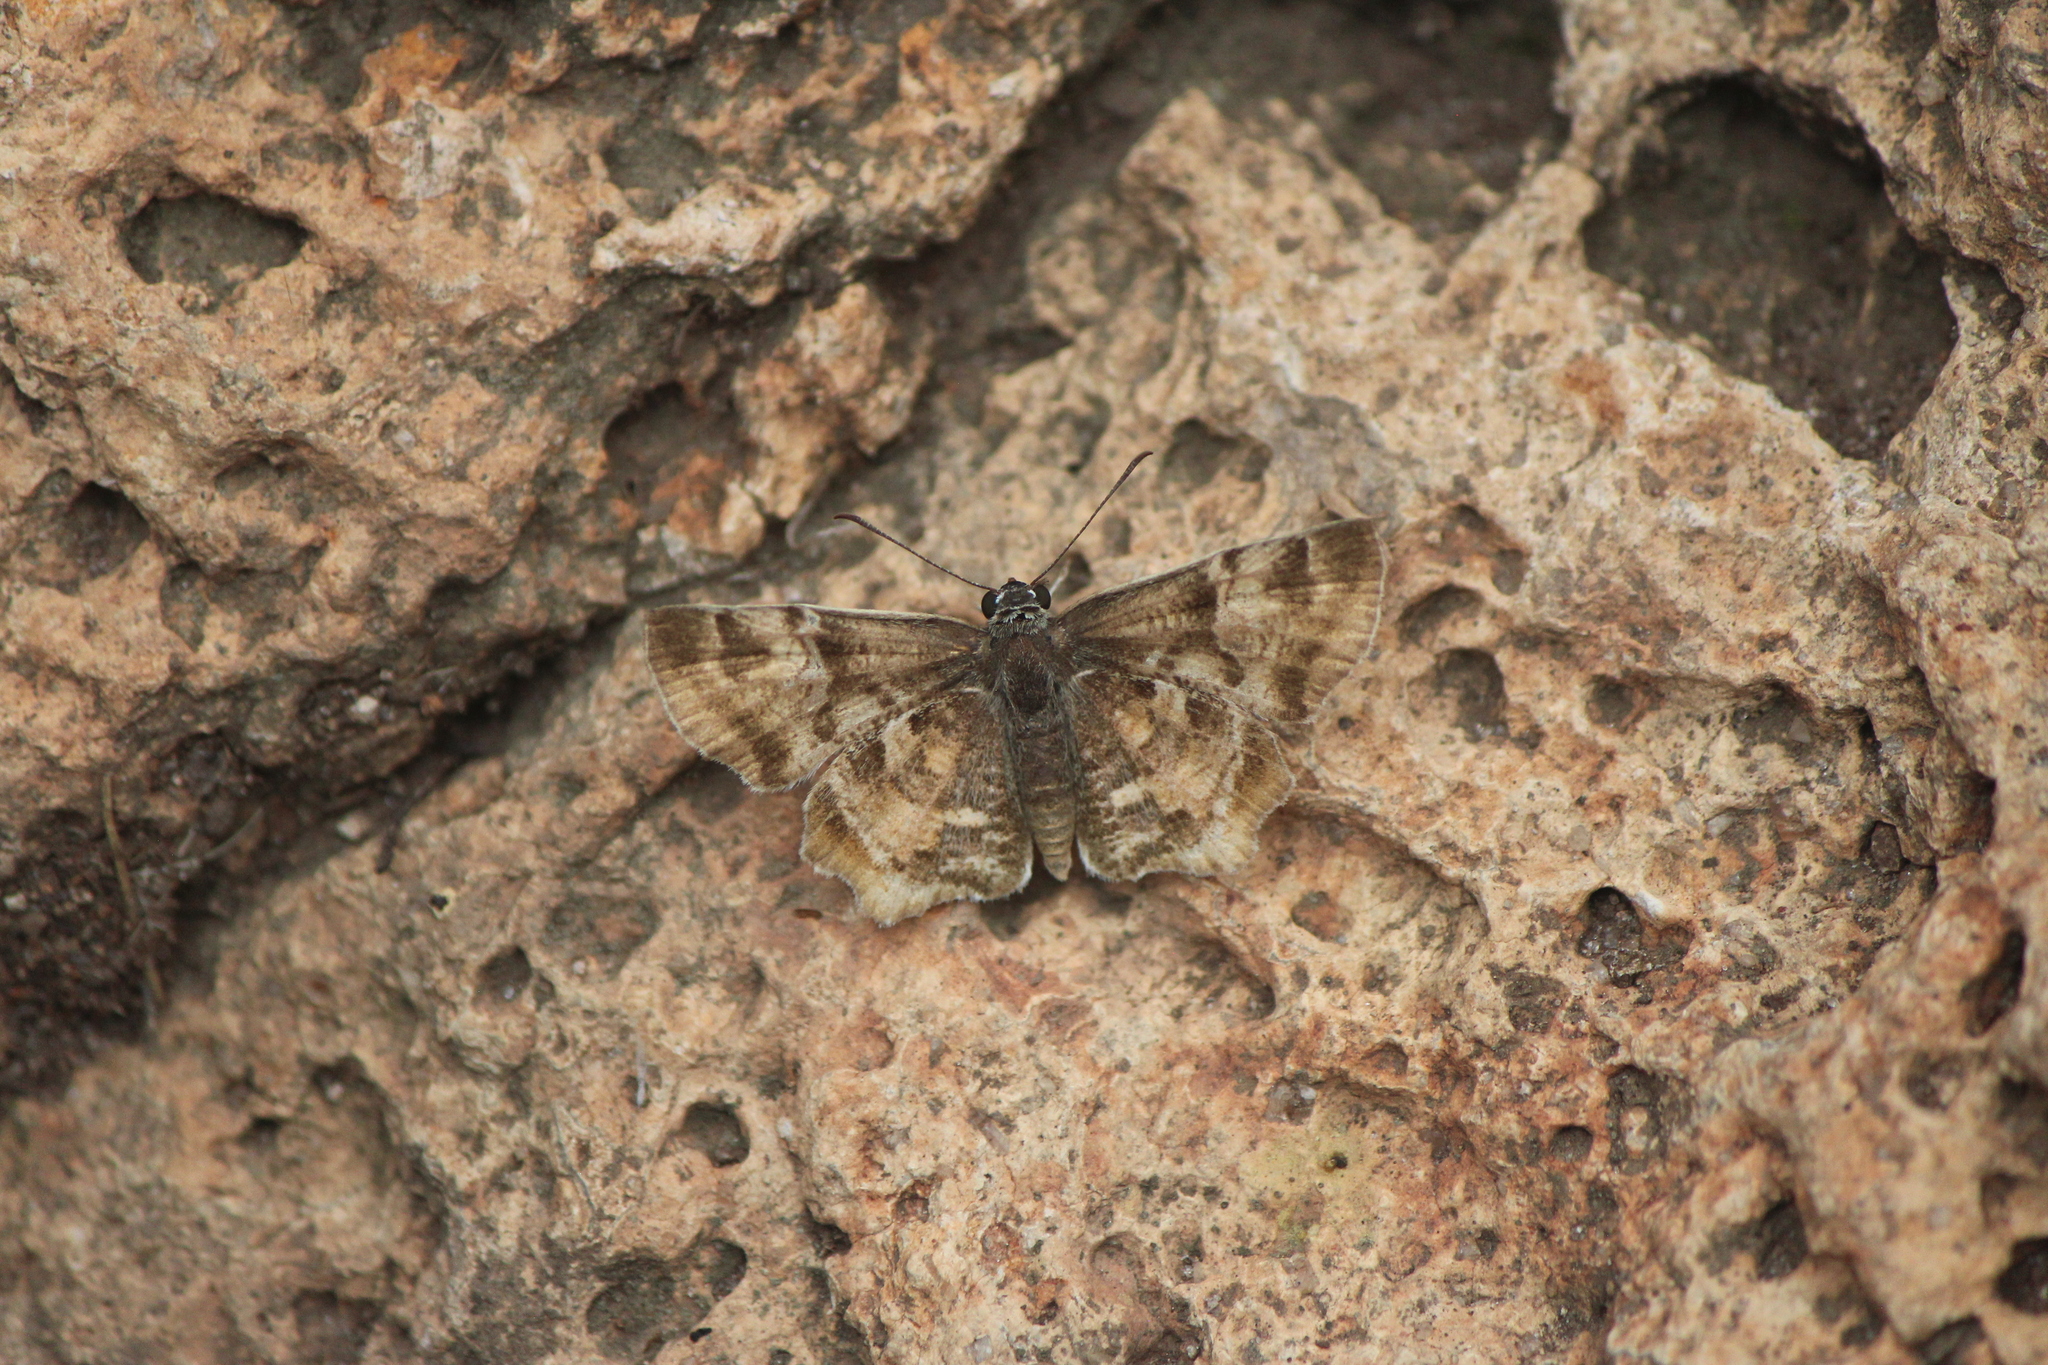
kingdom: Animalia
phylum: Arthropoda
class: Insecta
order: Lepidoptera
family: Hesperiidae
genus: Systasea
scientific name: Systasea pulverulenta
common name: Texas powdered skipper
